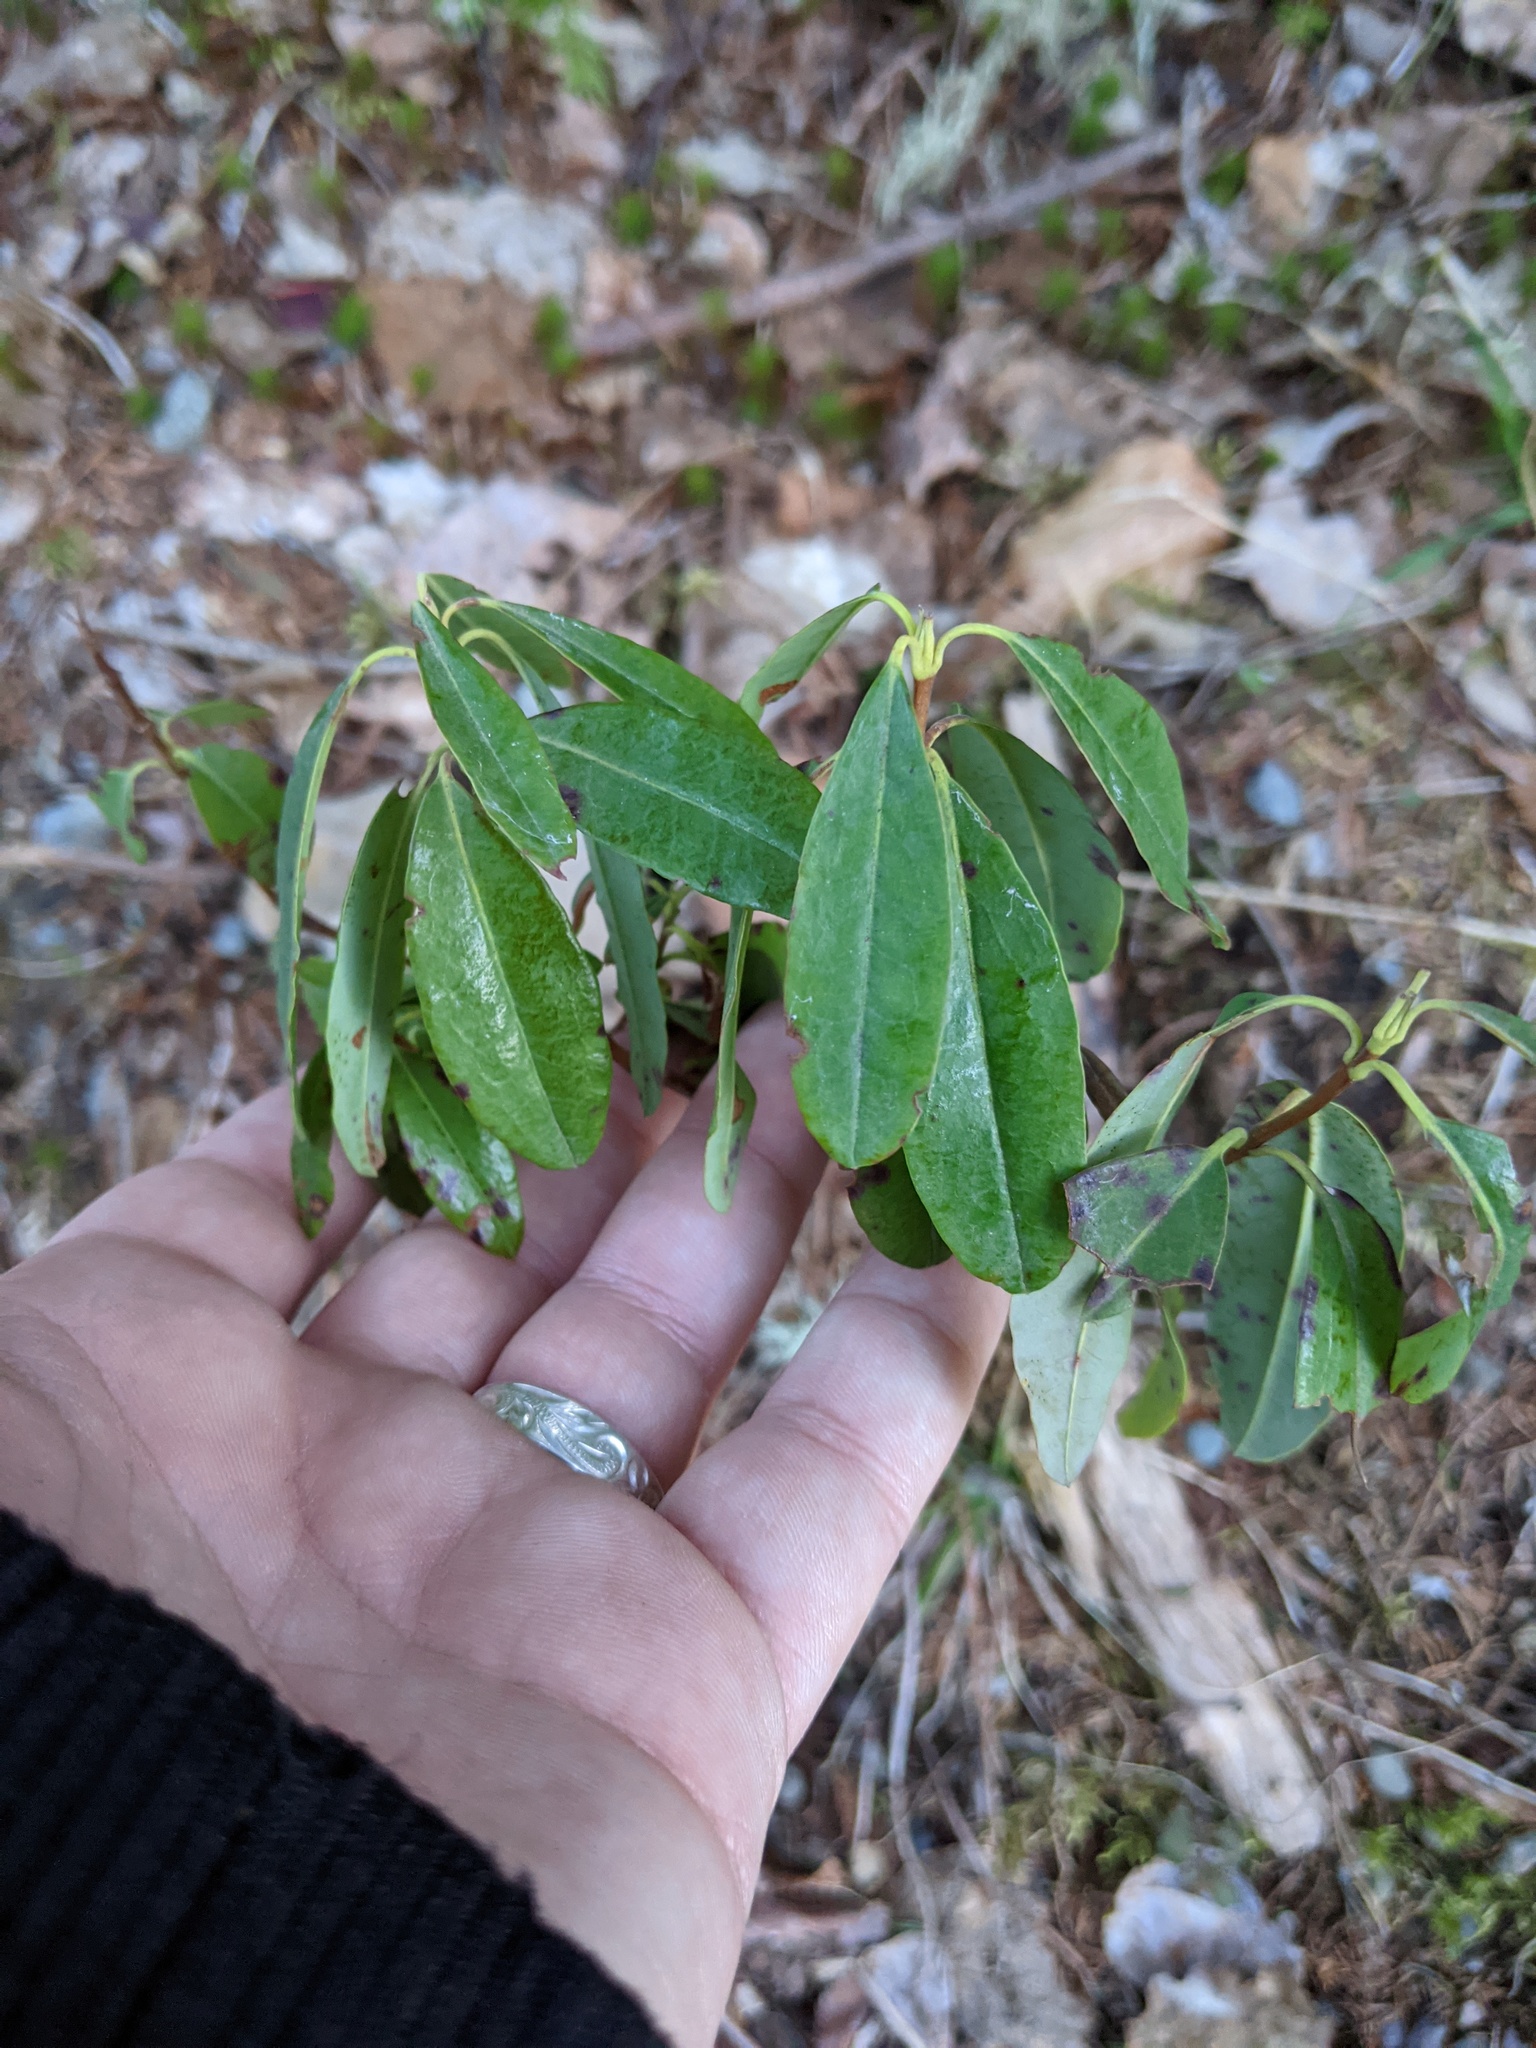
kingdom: Plantae
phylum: Tracheophyta
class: Magnoliopsida
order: Ericales
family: Ericaceae
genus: Kalmia
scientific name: Kalmia angustifolia
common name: Sheep-laurel
